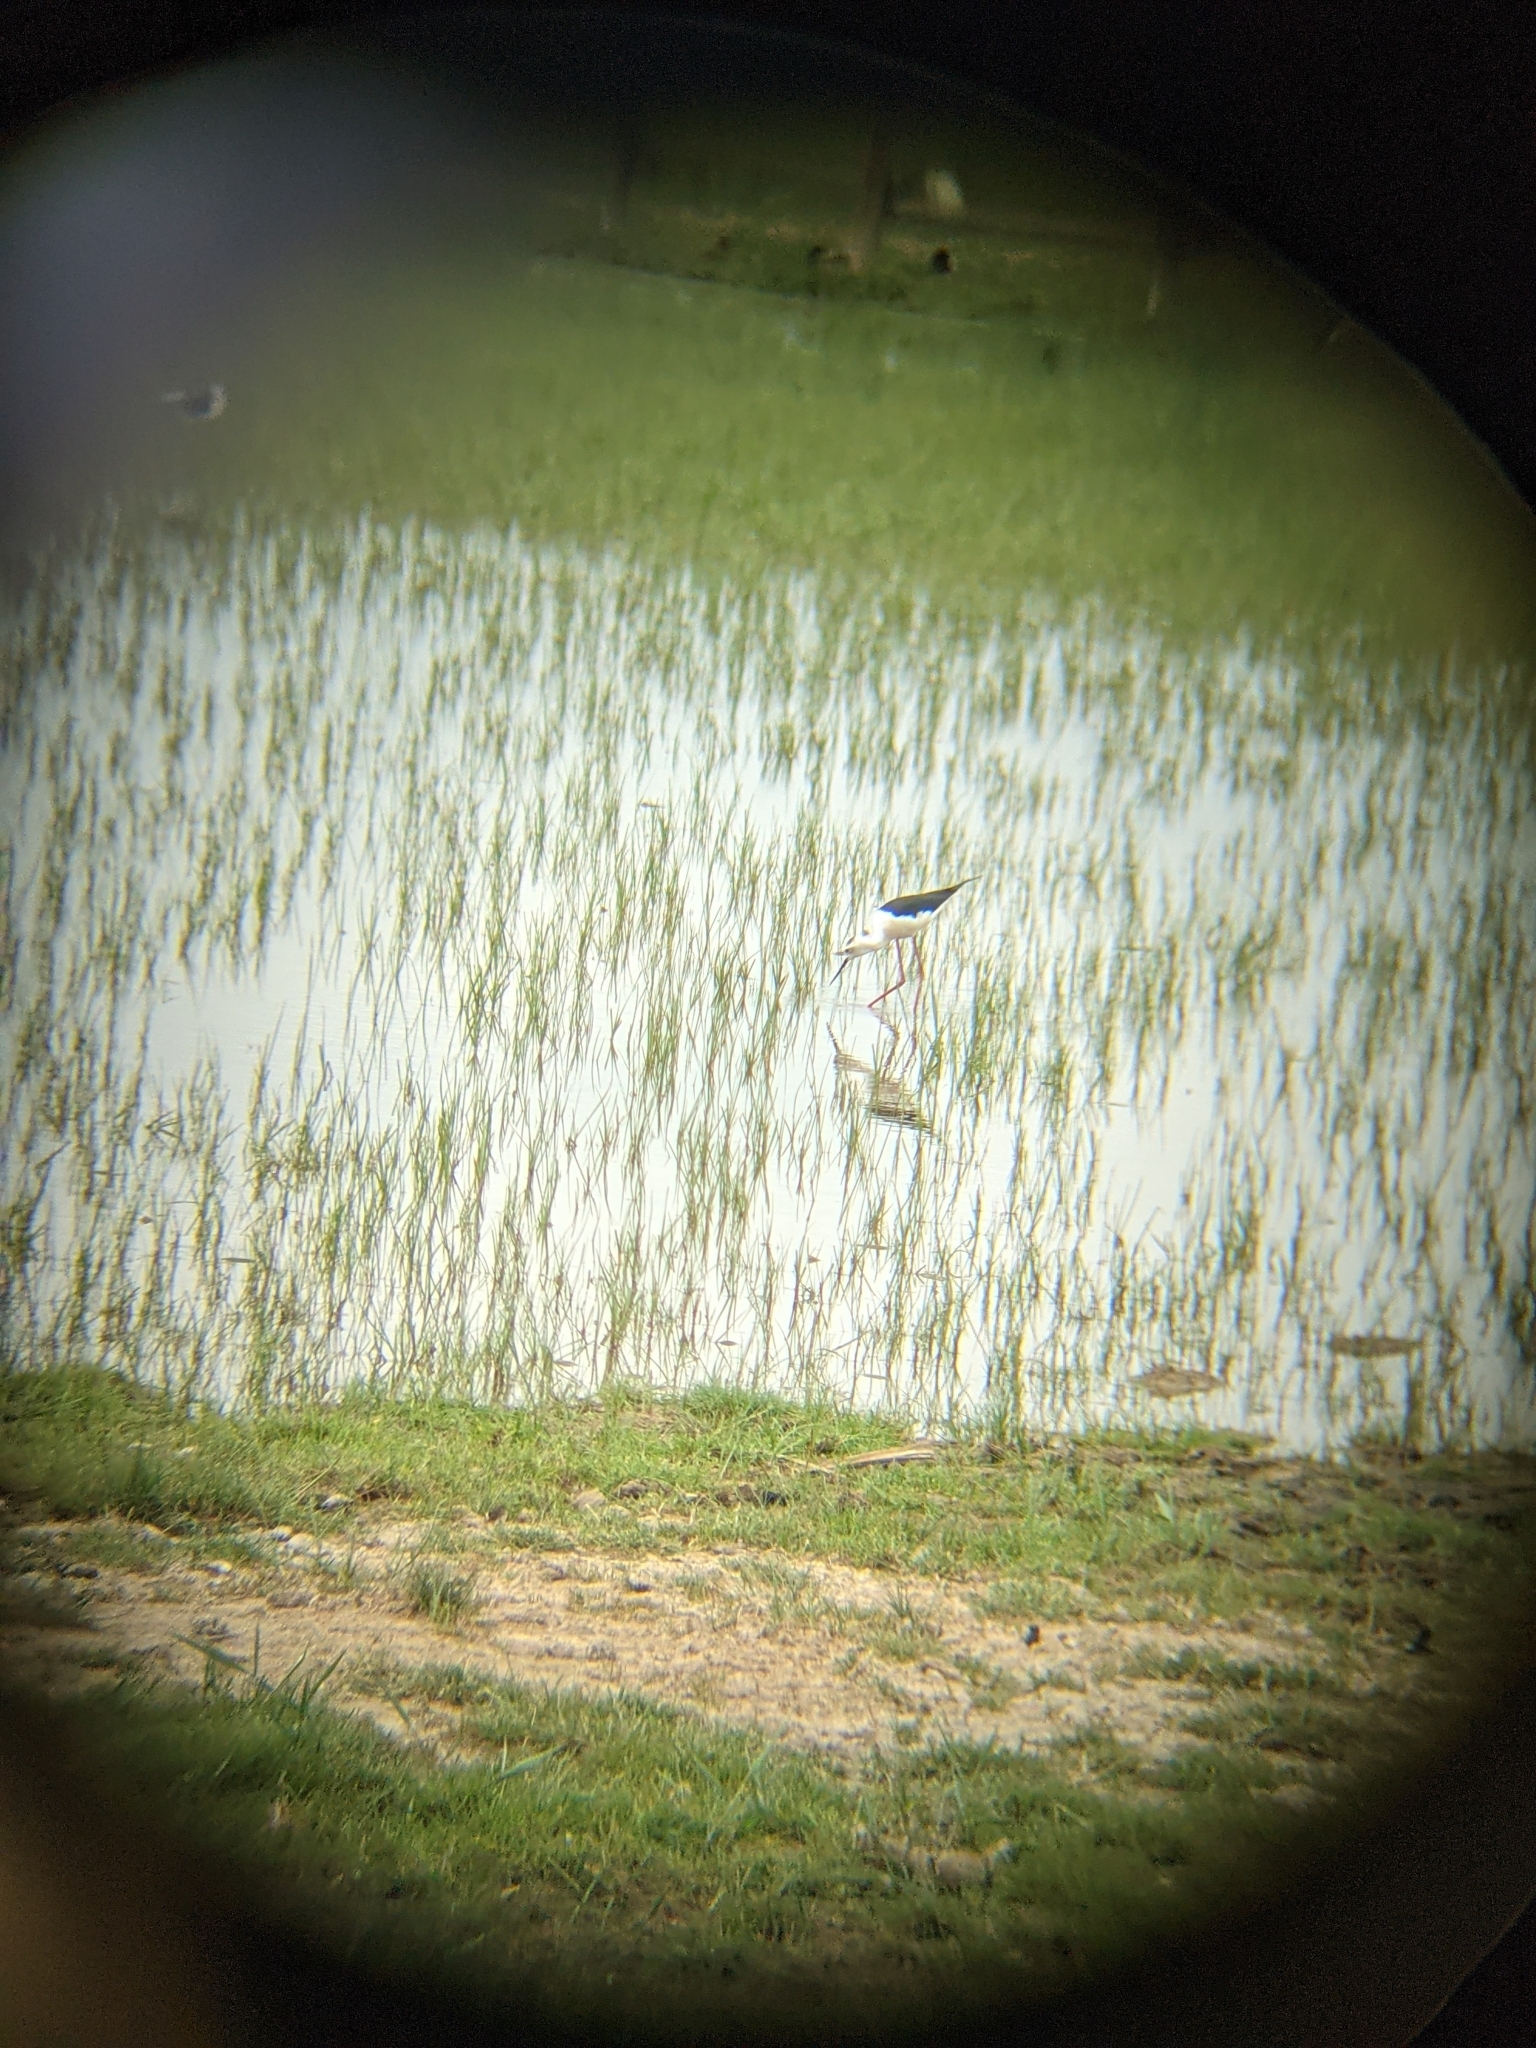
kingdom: Animalia
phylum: Chordata
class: Aves
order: Charadriiformes
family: Recurvirostridae
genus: Himantopus
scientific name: Himantopus himantopus
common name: Black-winged stilt
